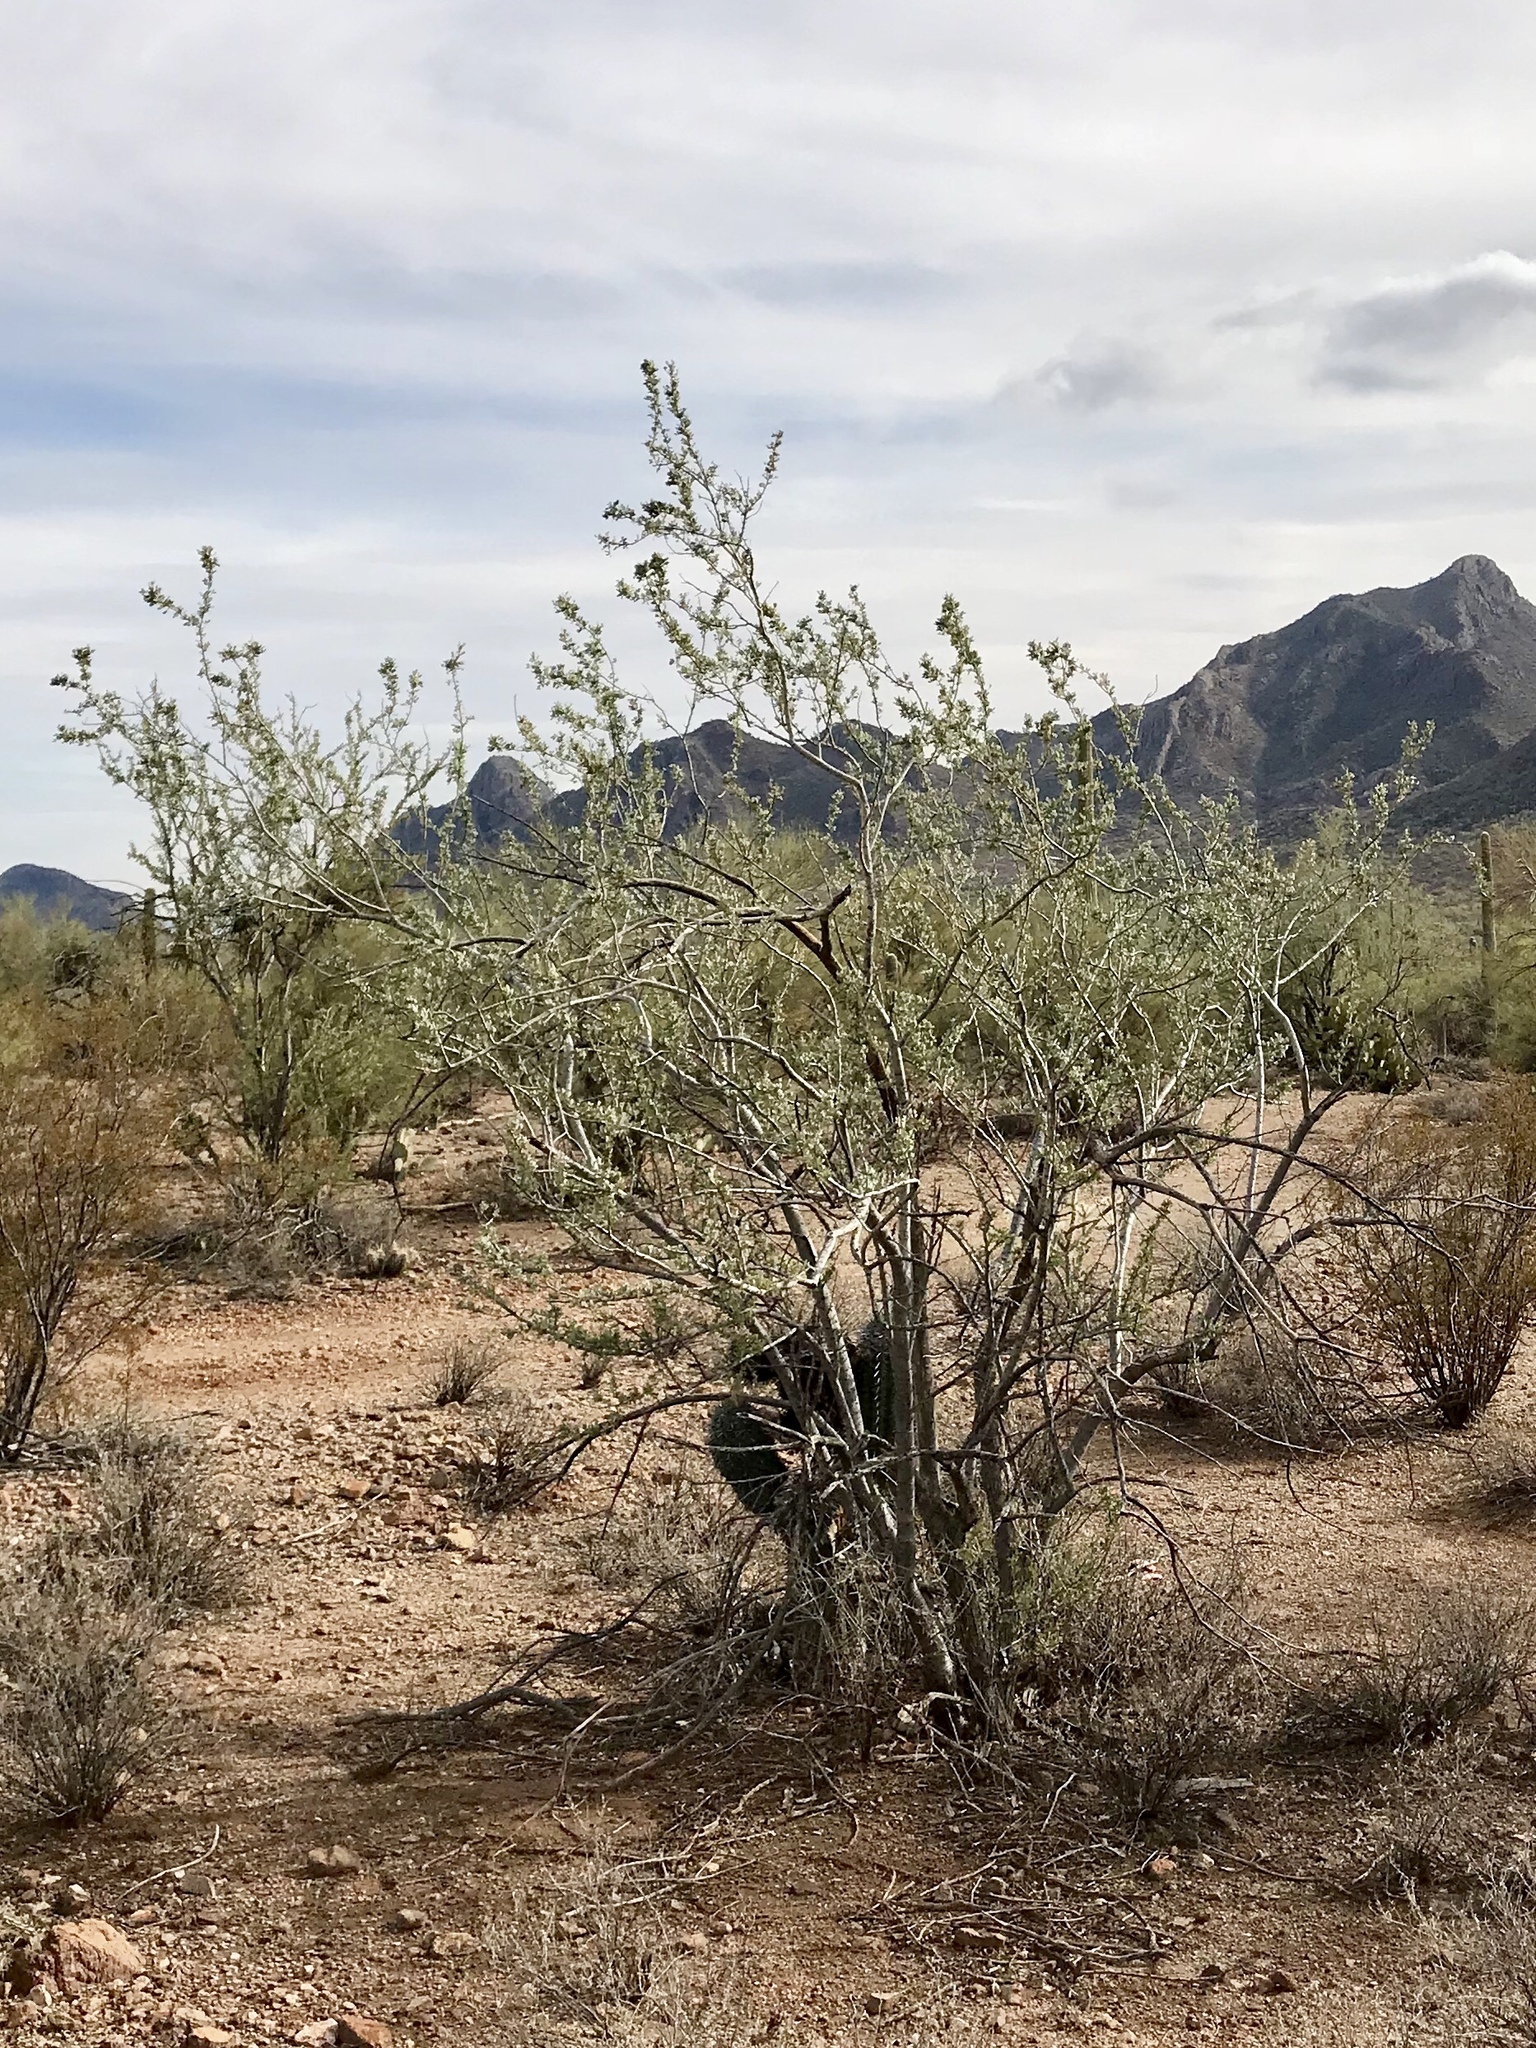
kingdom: Plantae
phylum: Tracheophyta
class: Magnoliopsida
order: Fabales
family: Fabaceae
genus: Olneya
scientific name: Olneya tesota
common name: Desert ironwood
